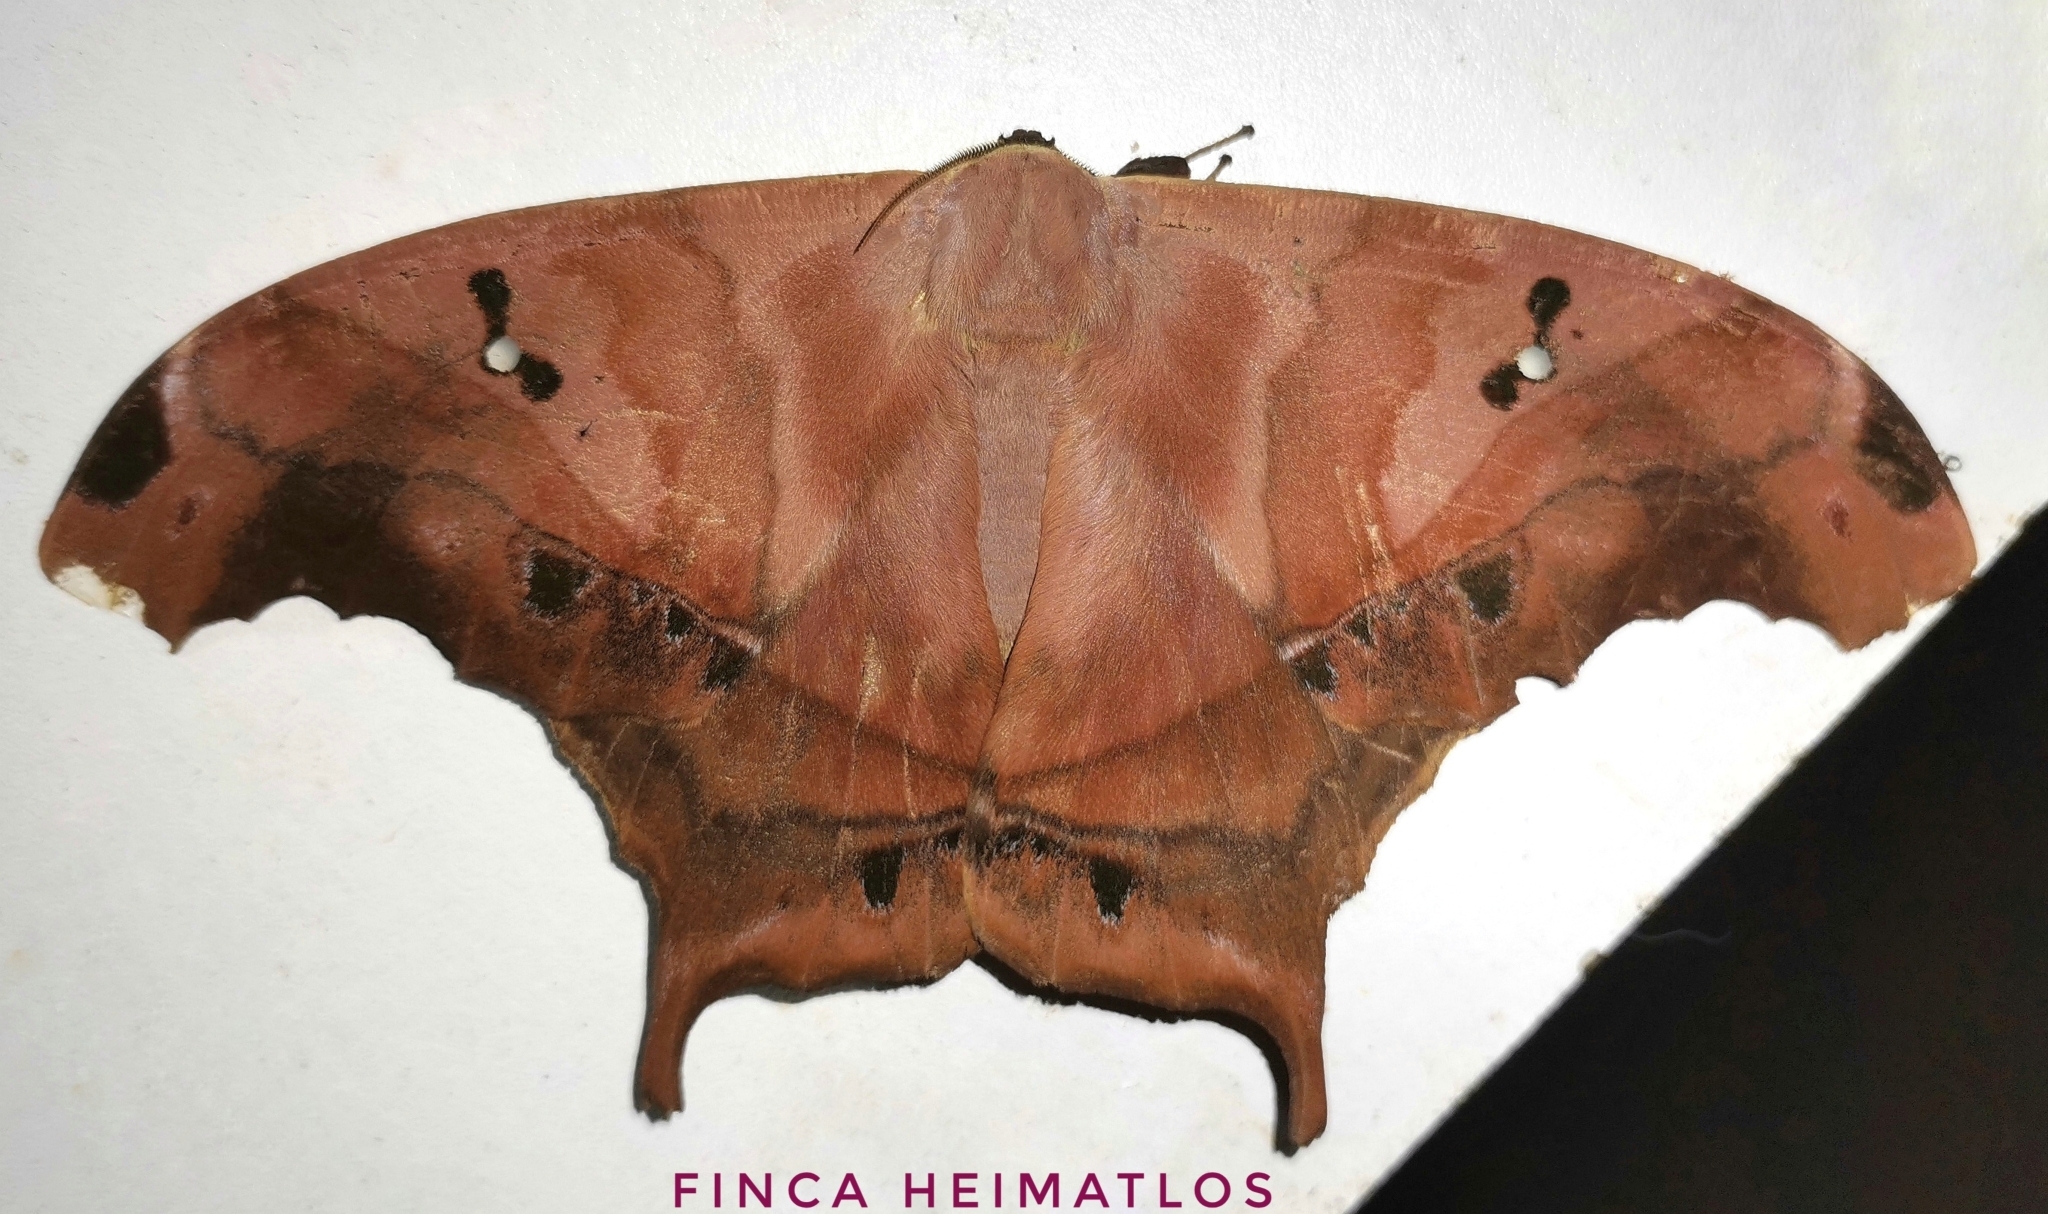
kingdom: Animalia
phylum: Arthropoda
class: Insecta
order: Lepidoptera
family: Saturniidae
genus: Titaea
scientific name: Titaea tamerlan
